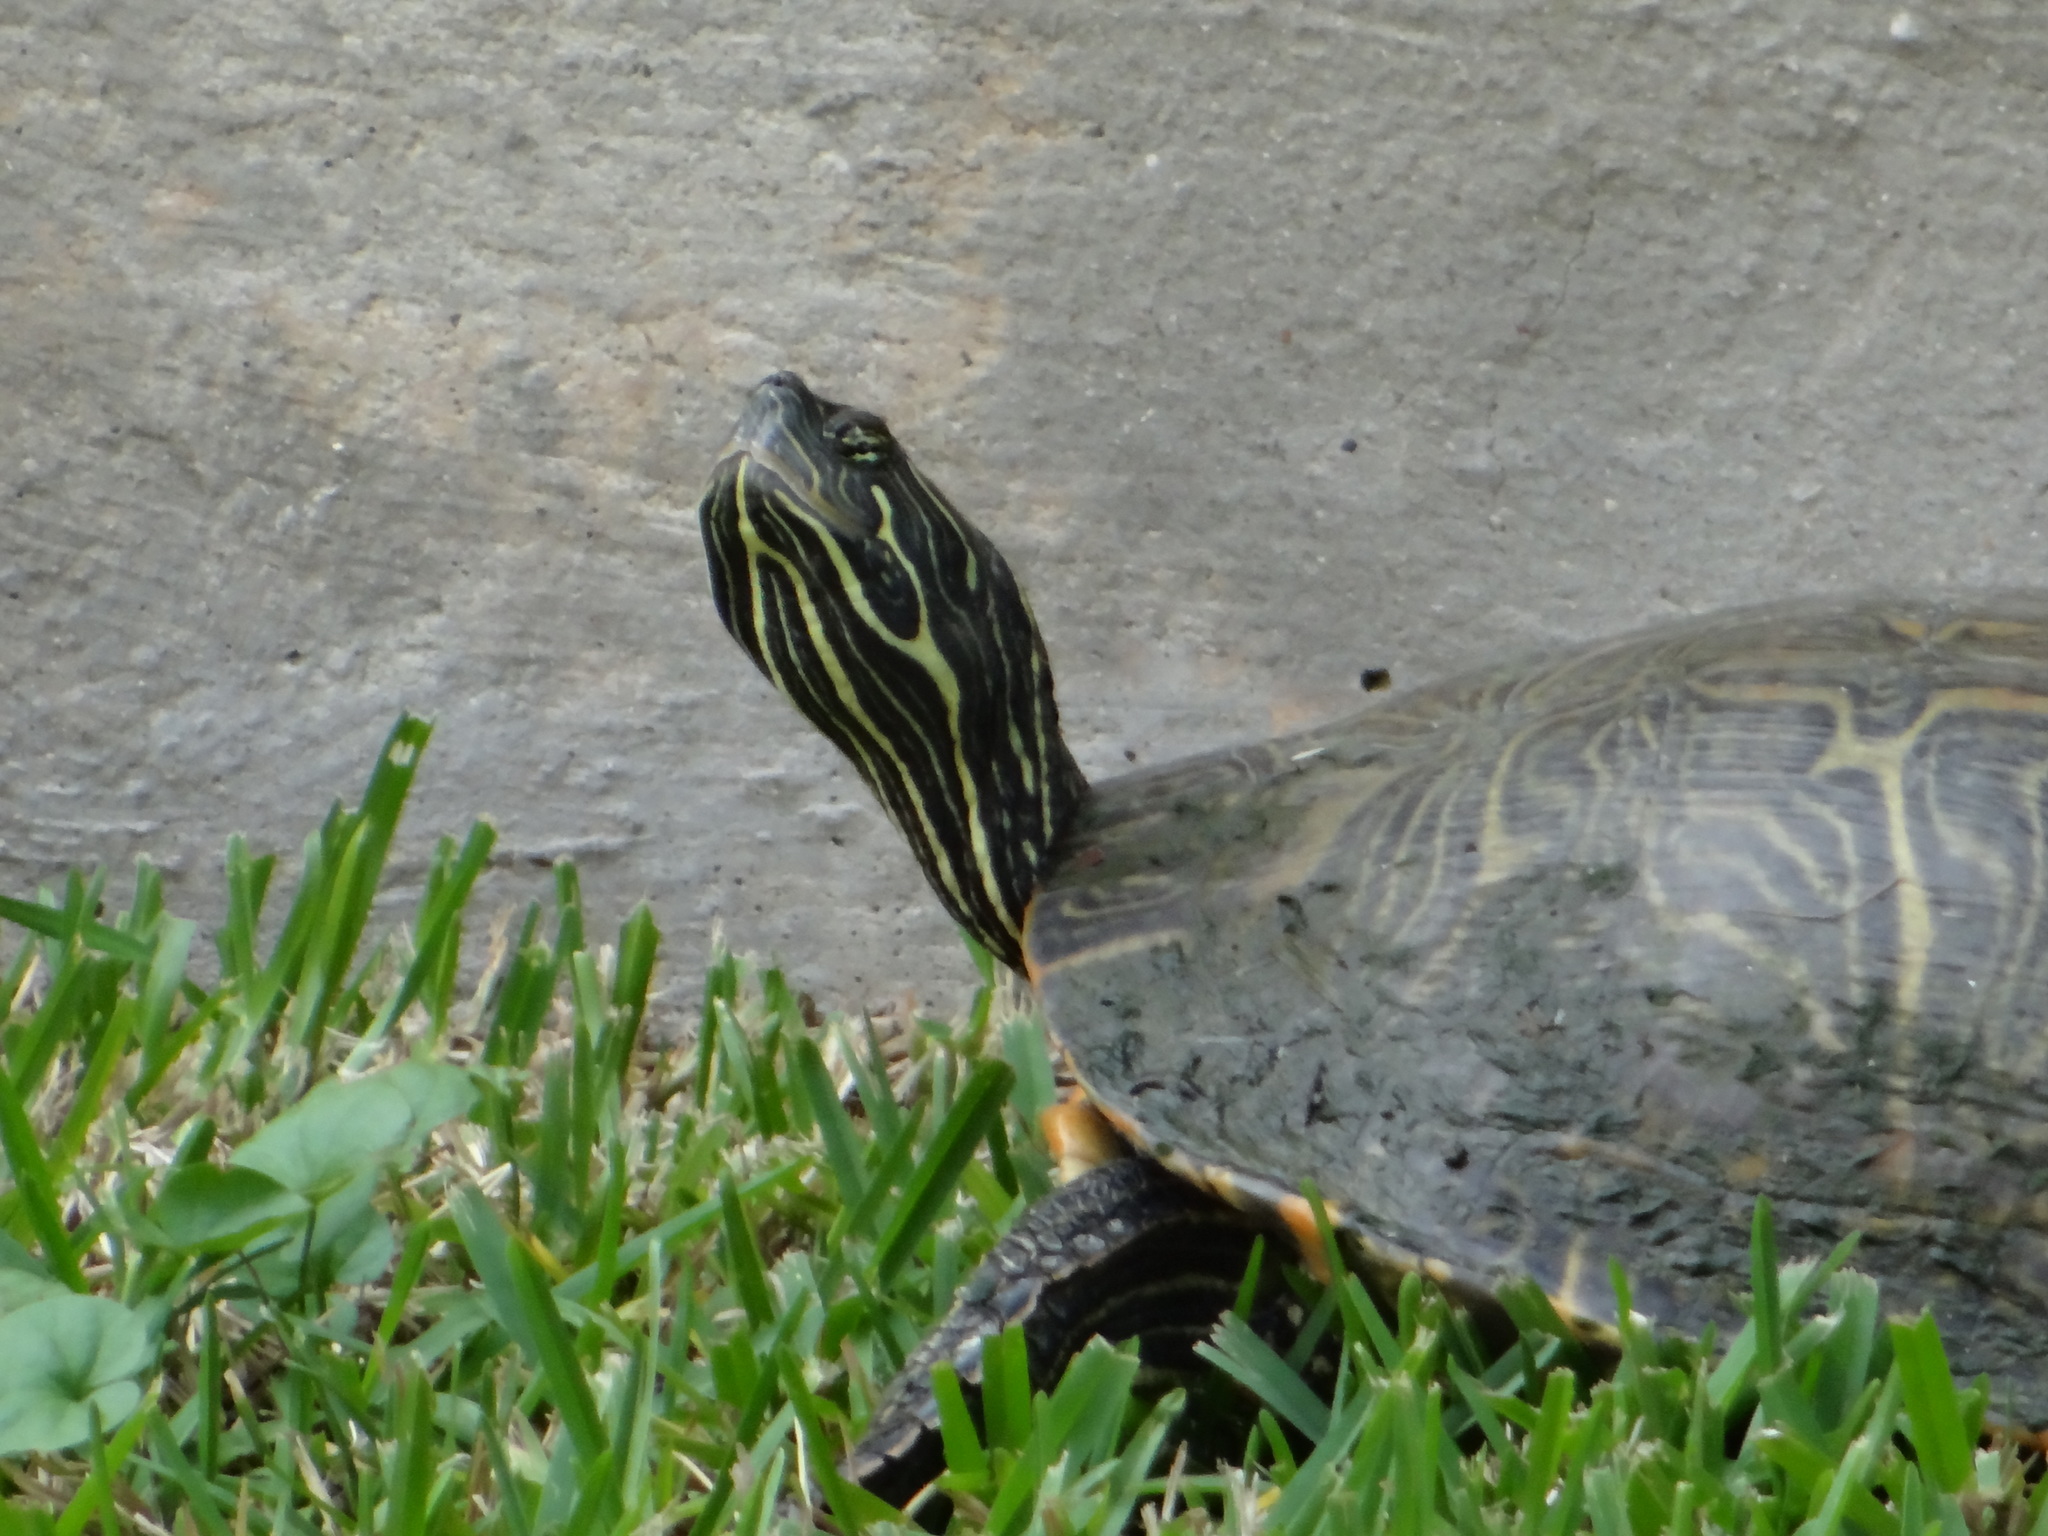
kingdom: Animalia
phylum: Chordata
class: Testudines
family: Emydidae
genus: Pseudemys
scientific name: Pseudemys concinna
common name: Eastern river cooter
